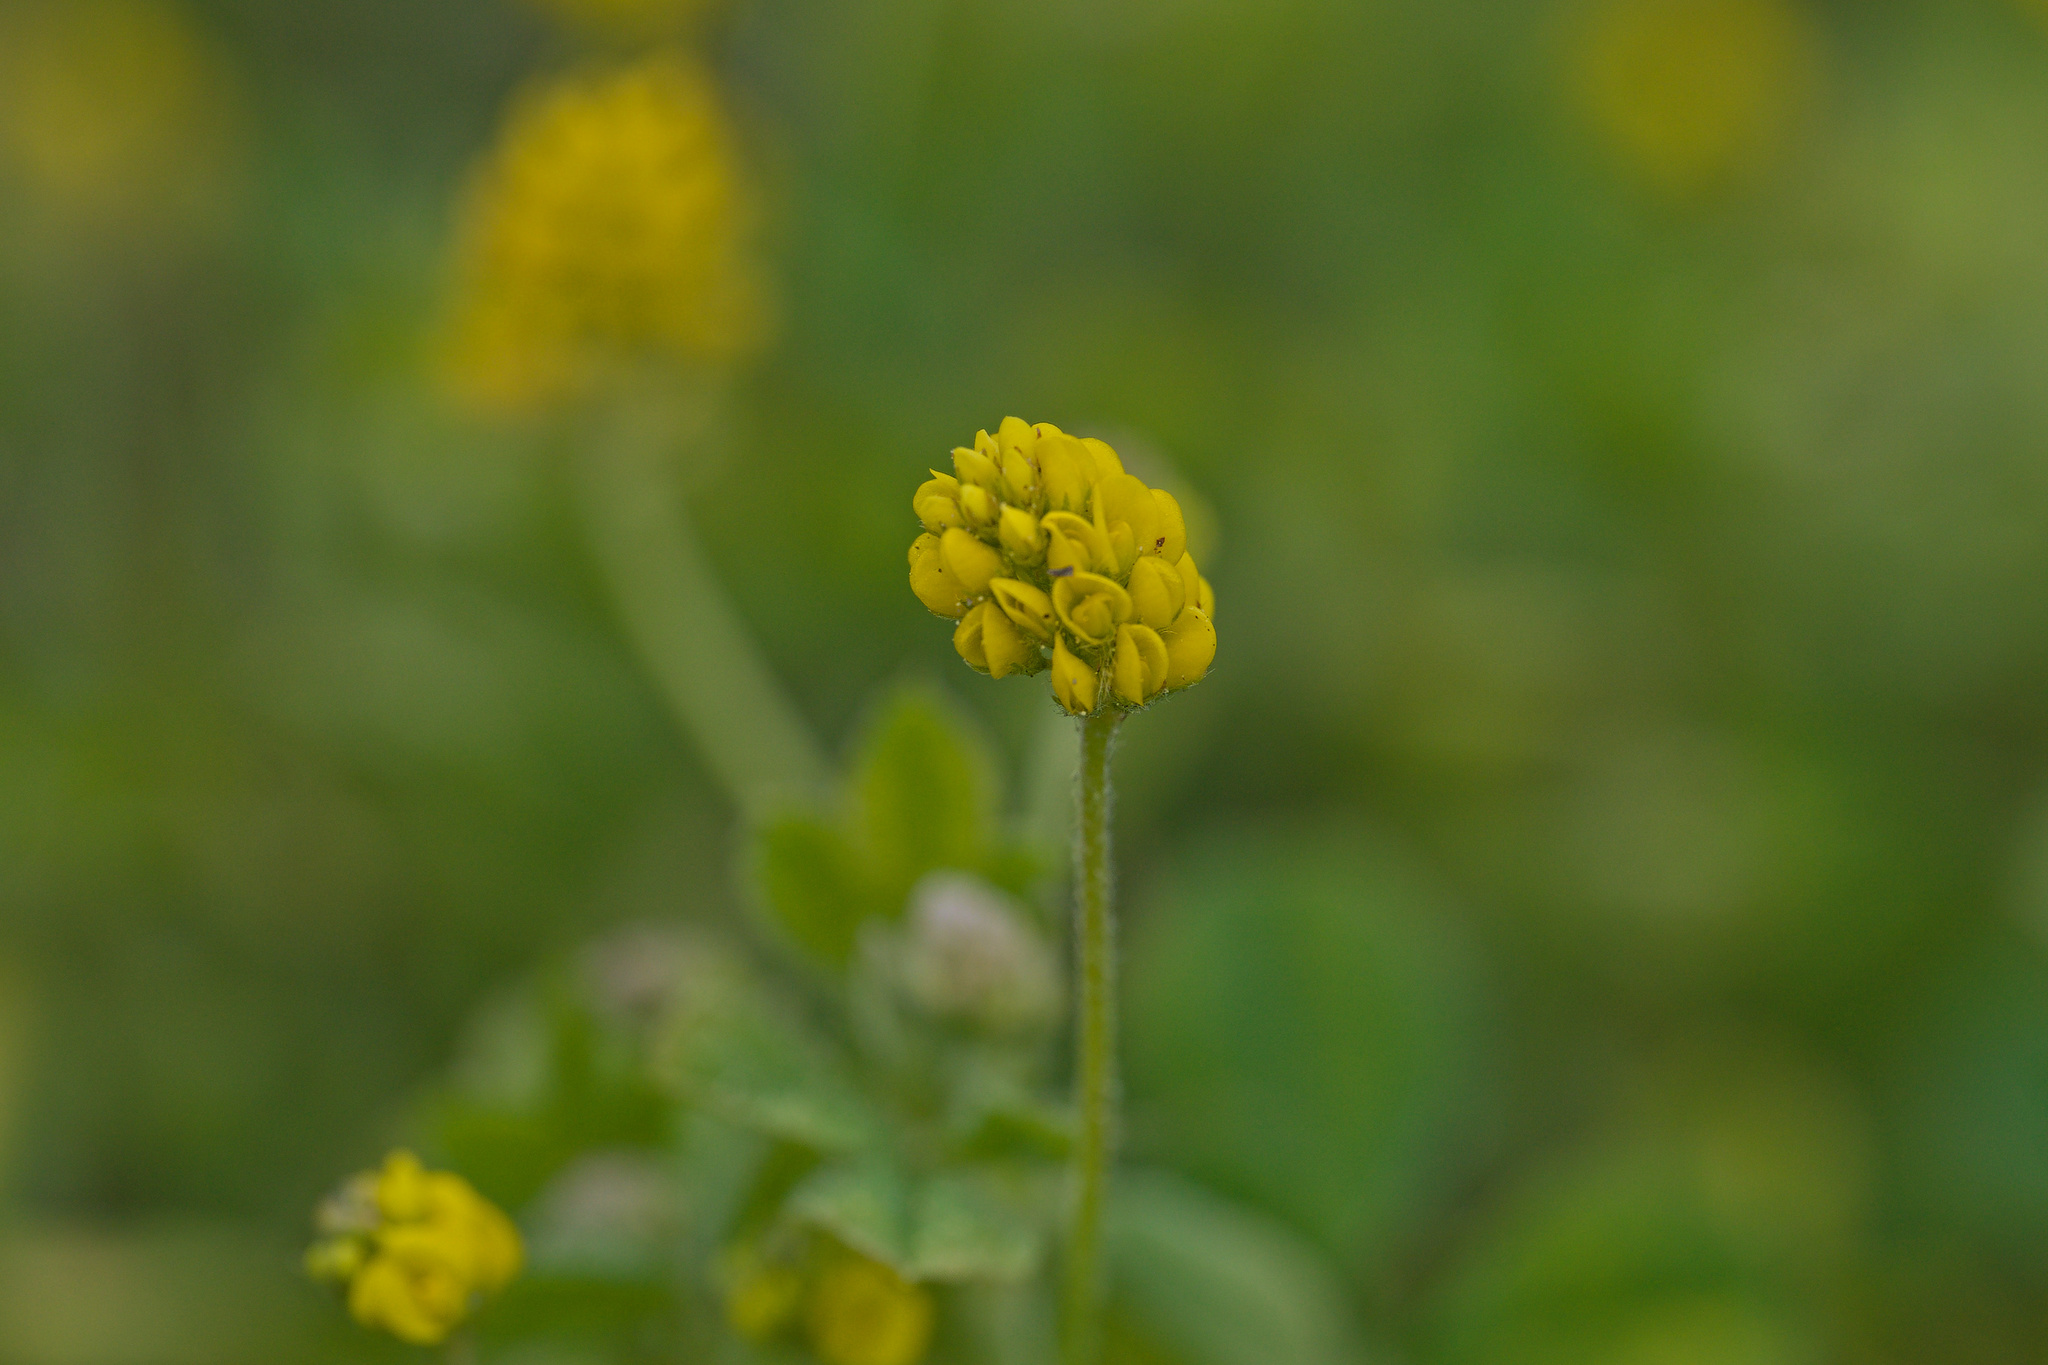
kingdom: Plantae
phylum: Tracheophyta
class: Magnoliopsida
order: Fabales
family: Fabaceae
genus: Medicago
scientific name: Medicago lupulina
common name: Black medick
